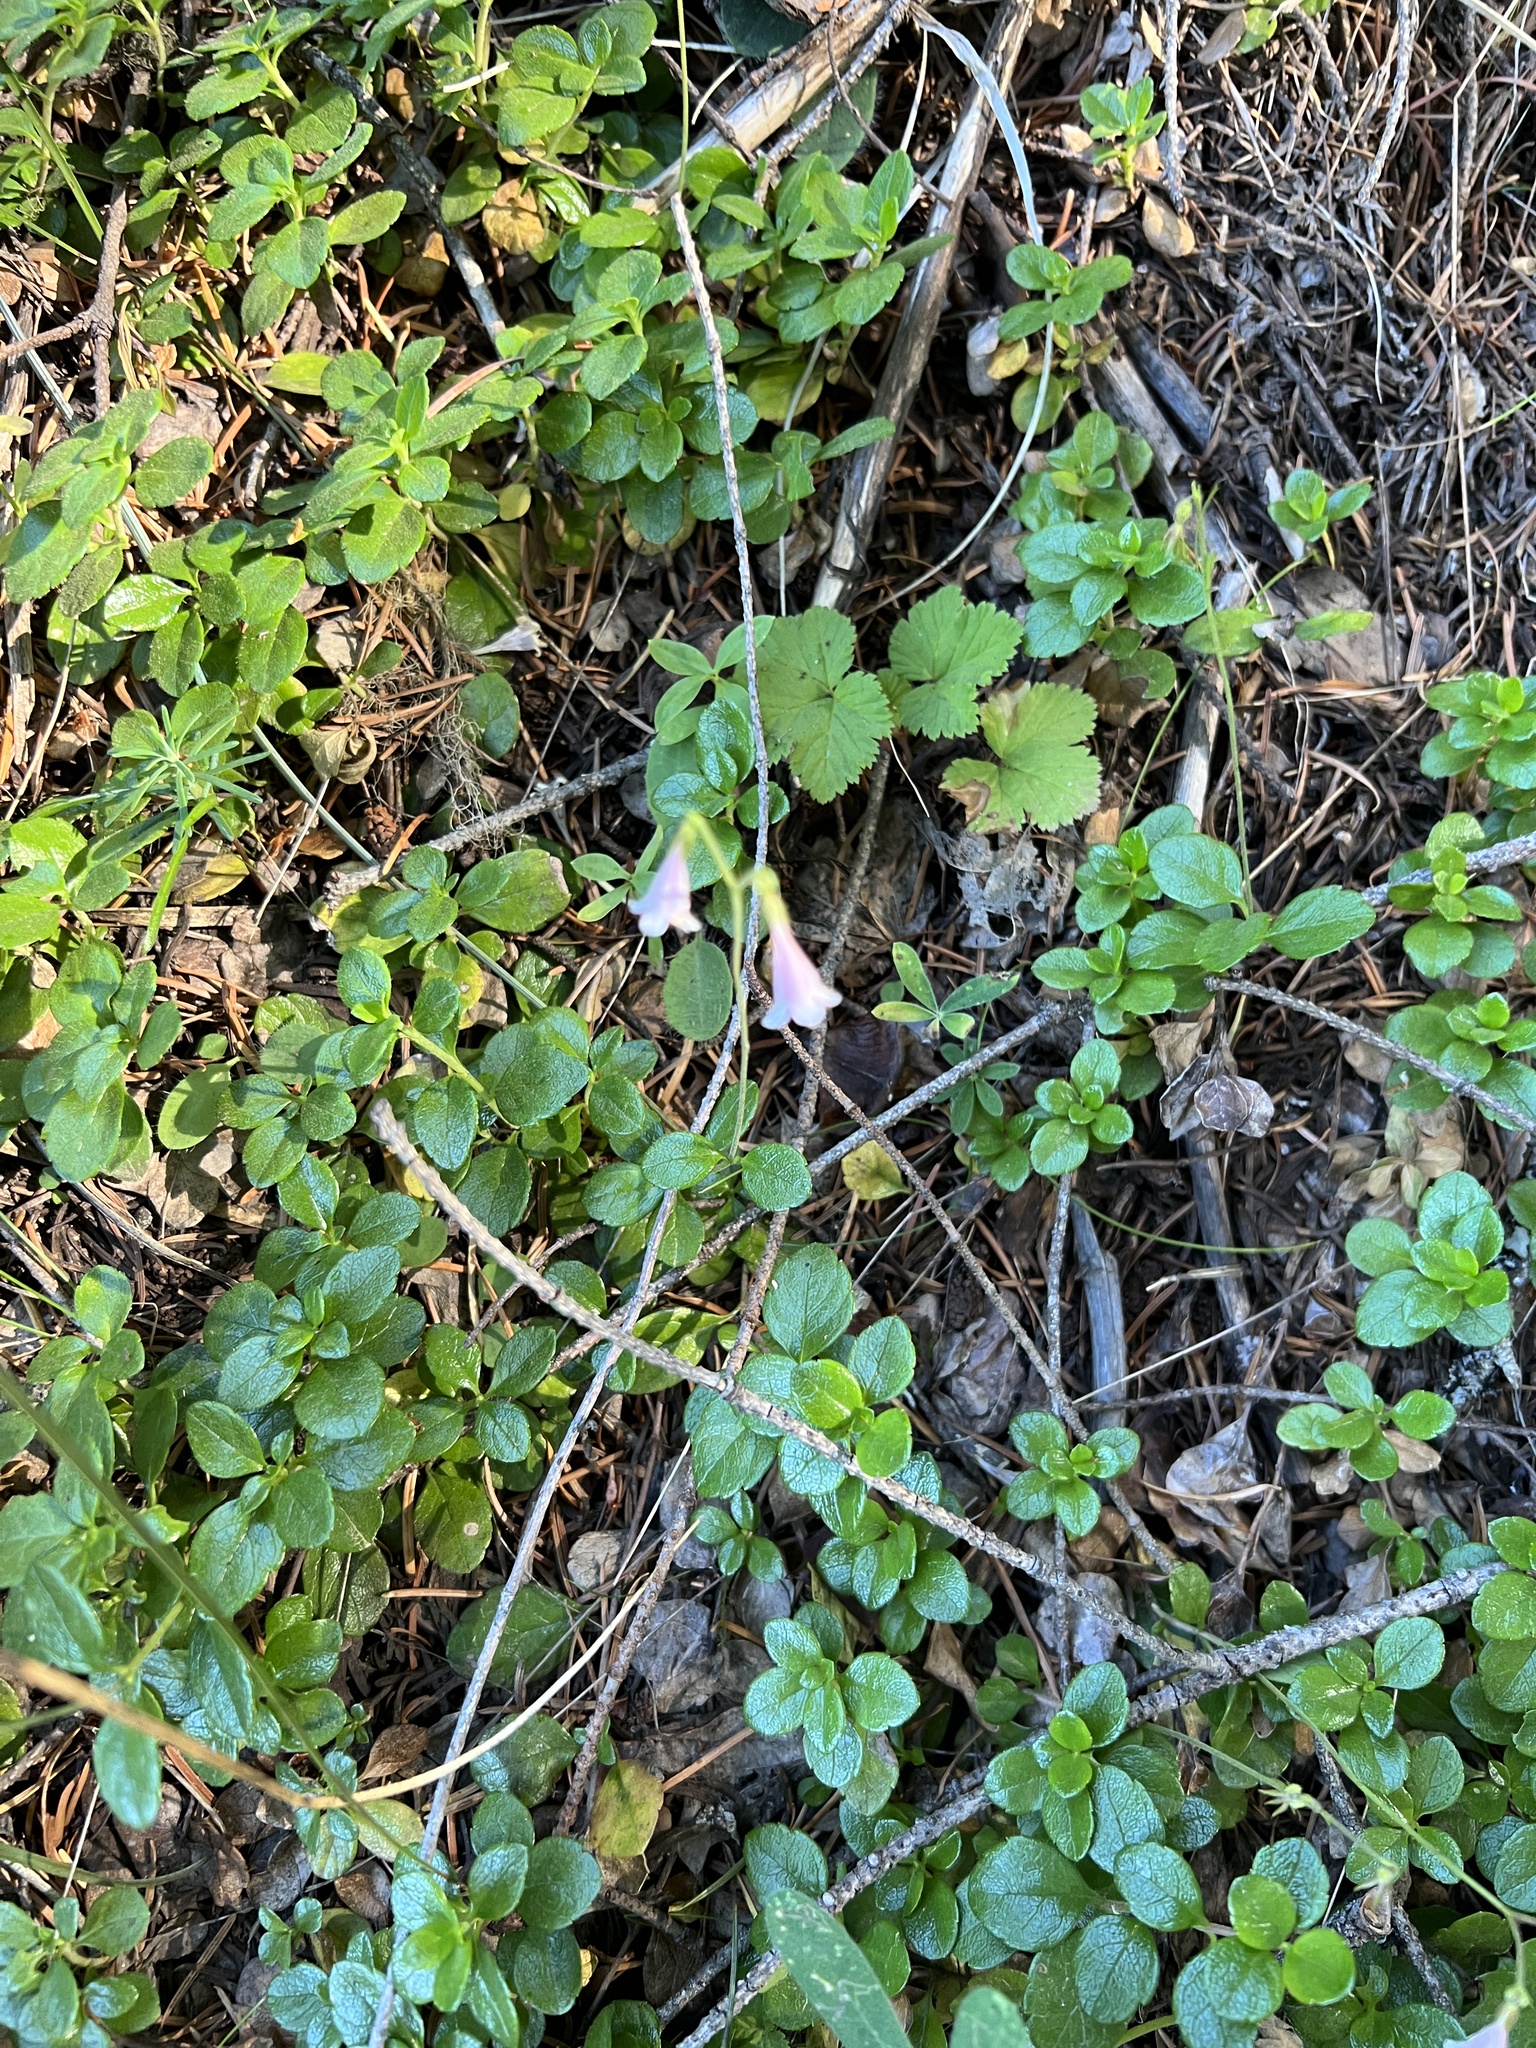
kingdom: Plantae
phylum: Tracheophyta
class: Magnoliopsida
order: Dipsacales
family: Caprifoliaceae
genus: Linnaea
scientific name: Linnaea borealis
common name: Twinflower
